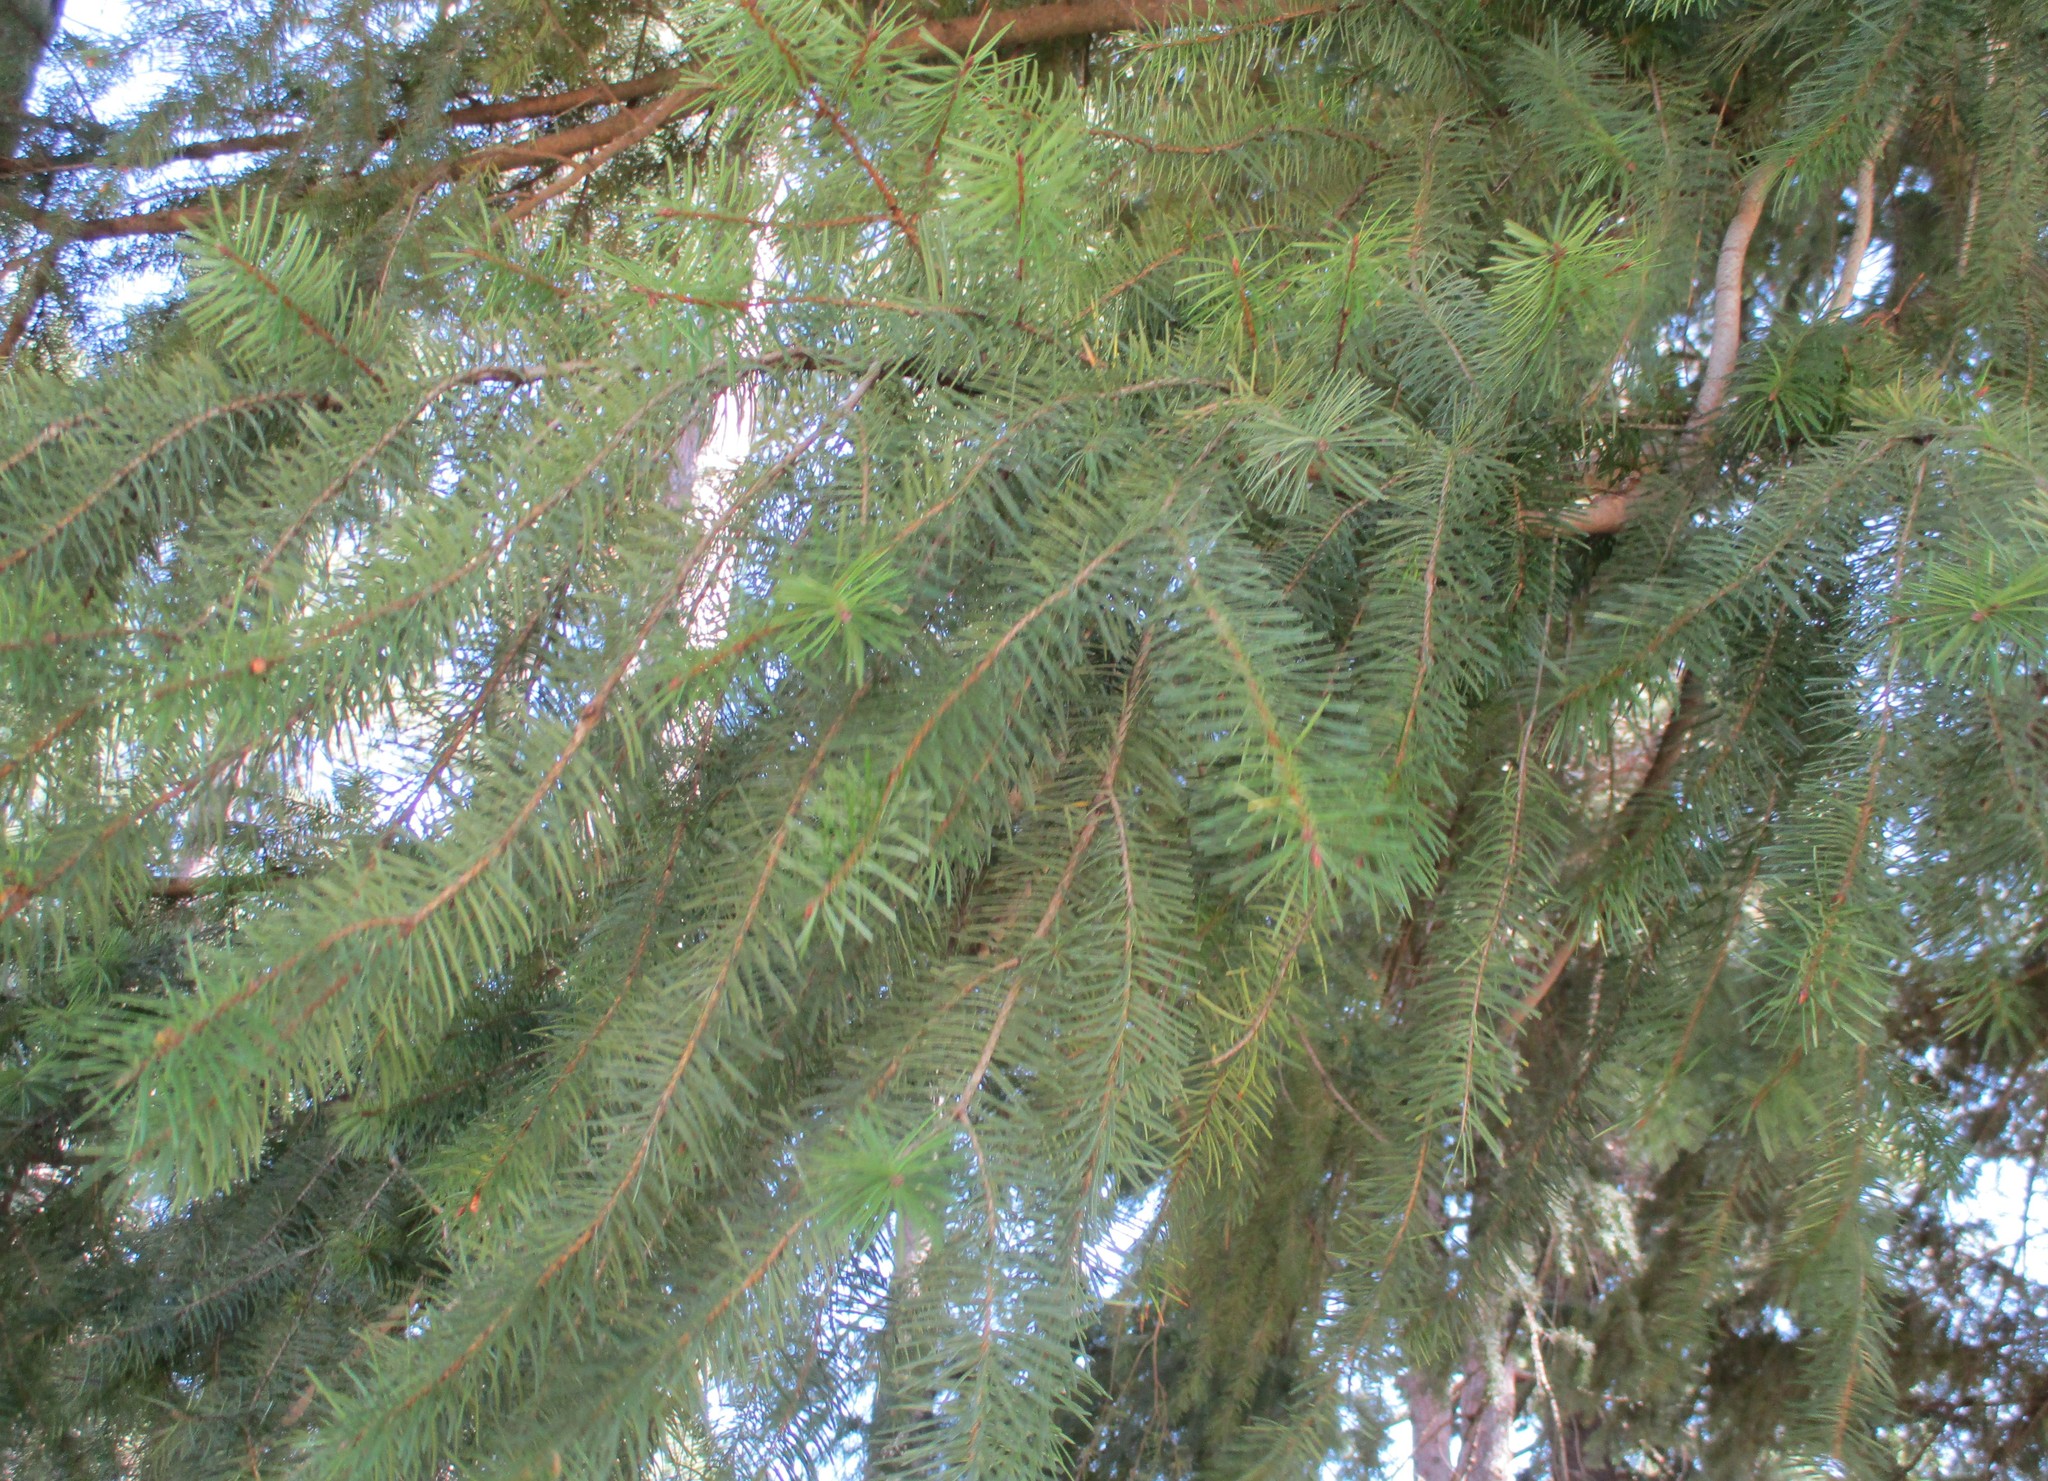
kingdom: Plantae
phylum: Tracheophyta
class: Pinopsida
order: Pinales
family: Pinaceae
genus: Pseudotsuga
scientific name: Pseudotsuga menziesii
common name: Douglas fir
